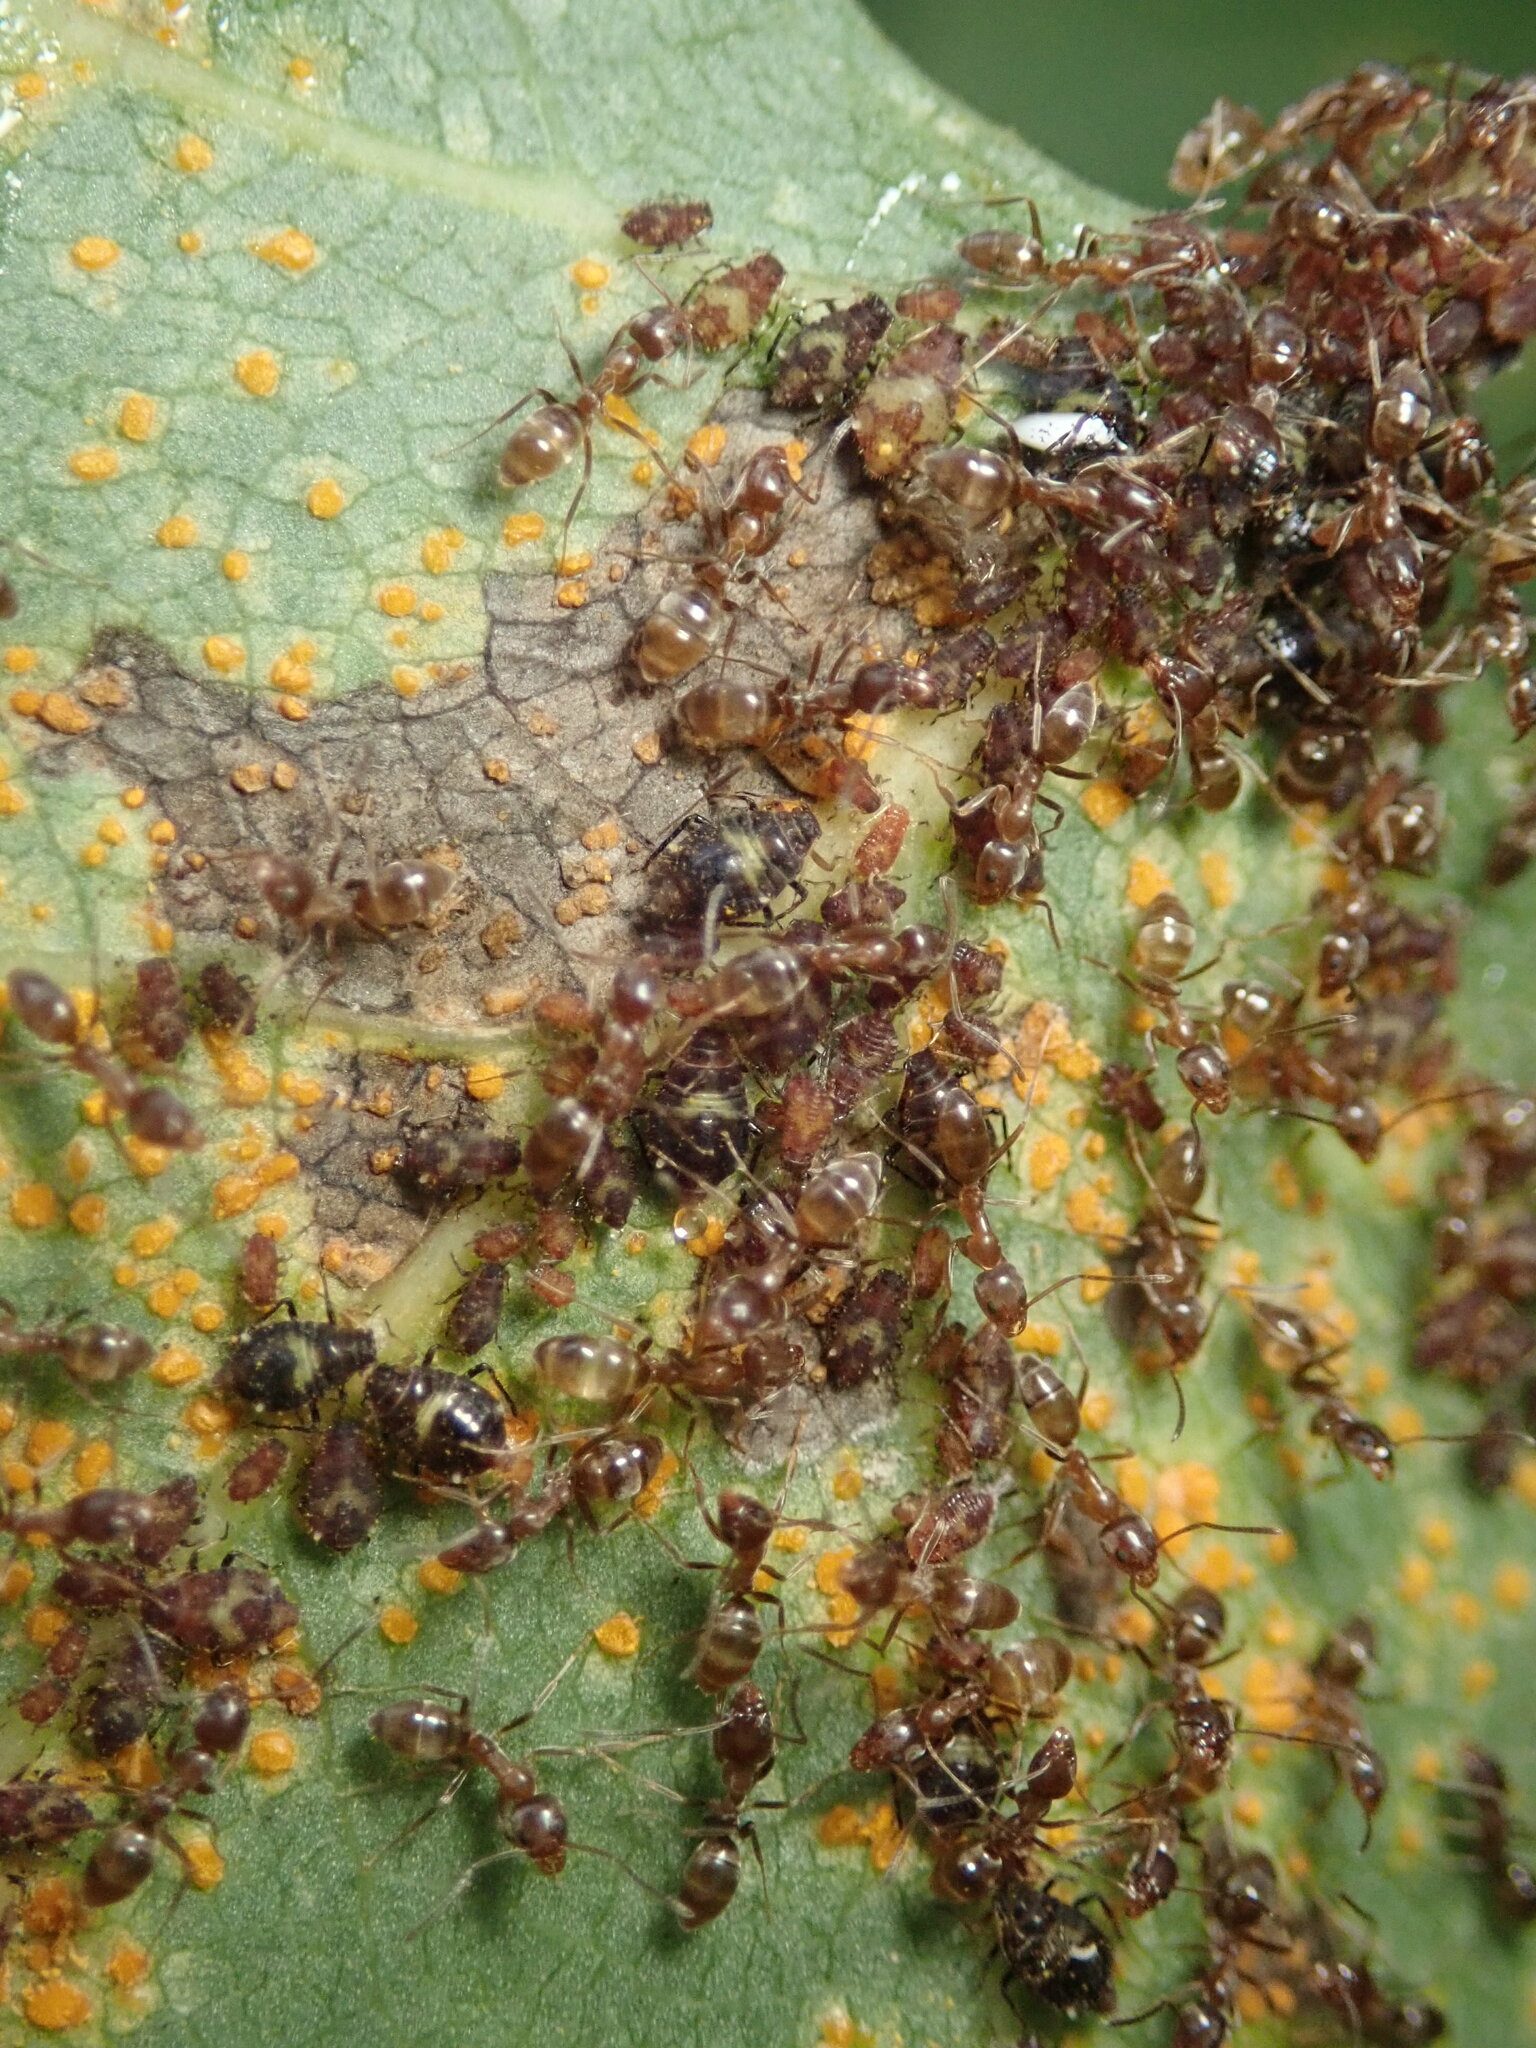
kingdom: Animalia
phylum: Arthropoda
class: Insecta
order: Hymenoptera
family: Formicidae
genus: Linepithema
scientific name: Linepithema humile
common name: Argentine ant
